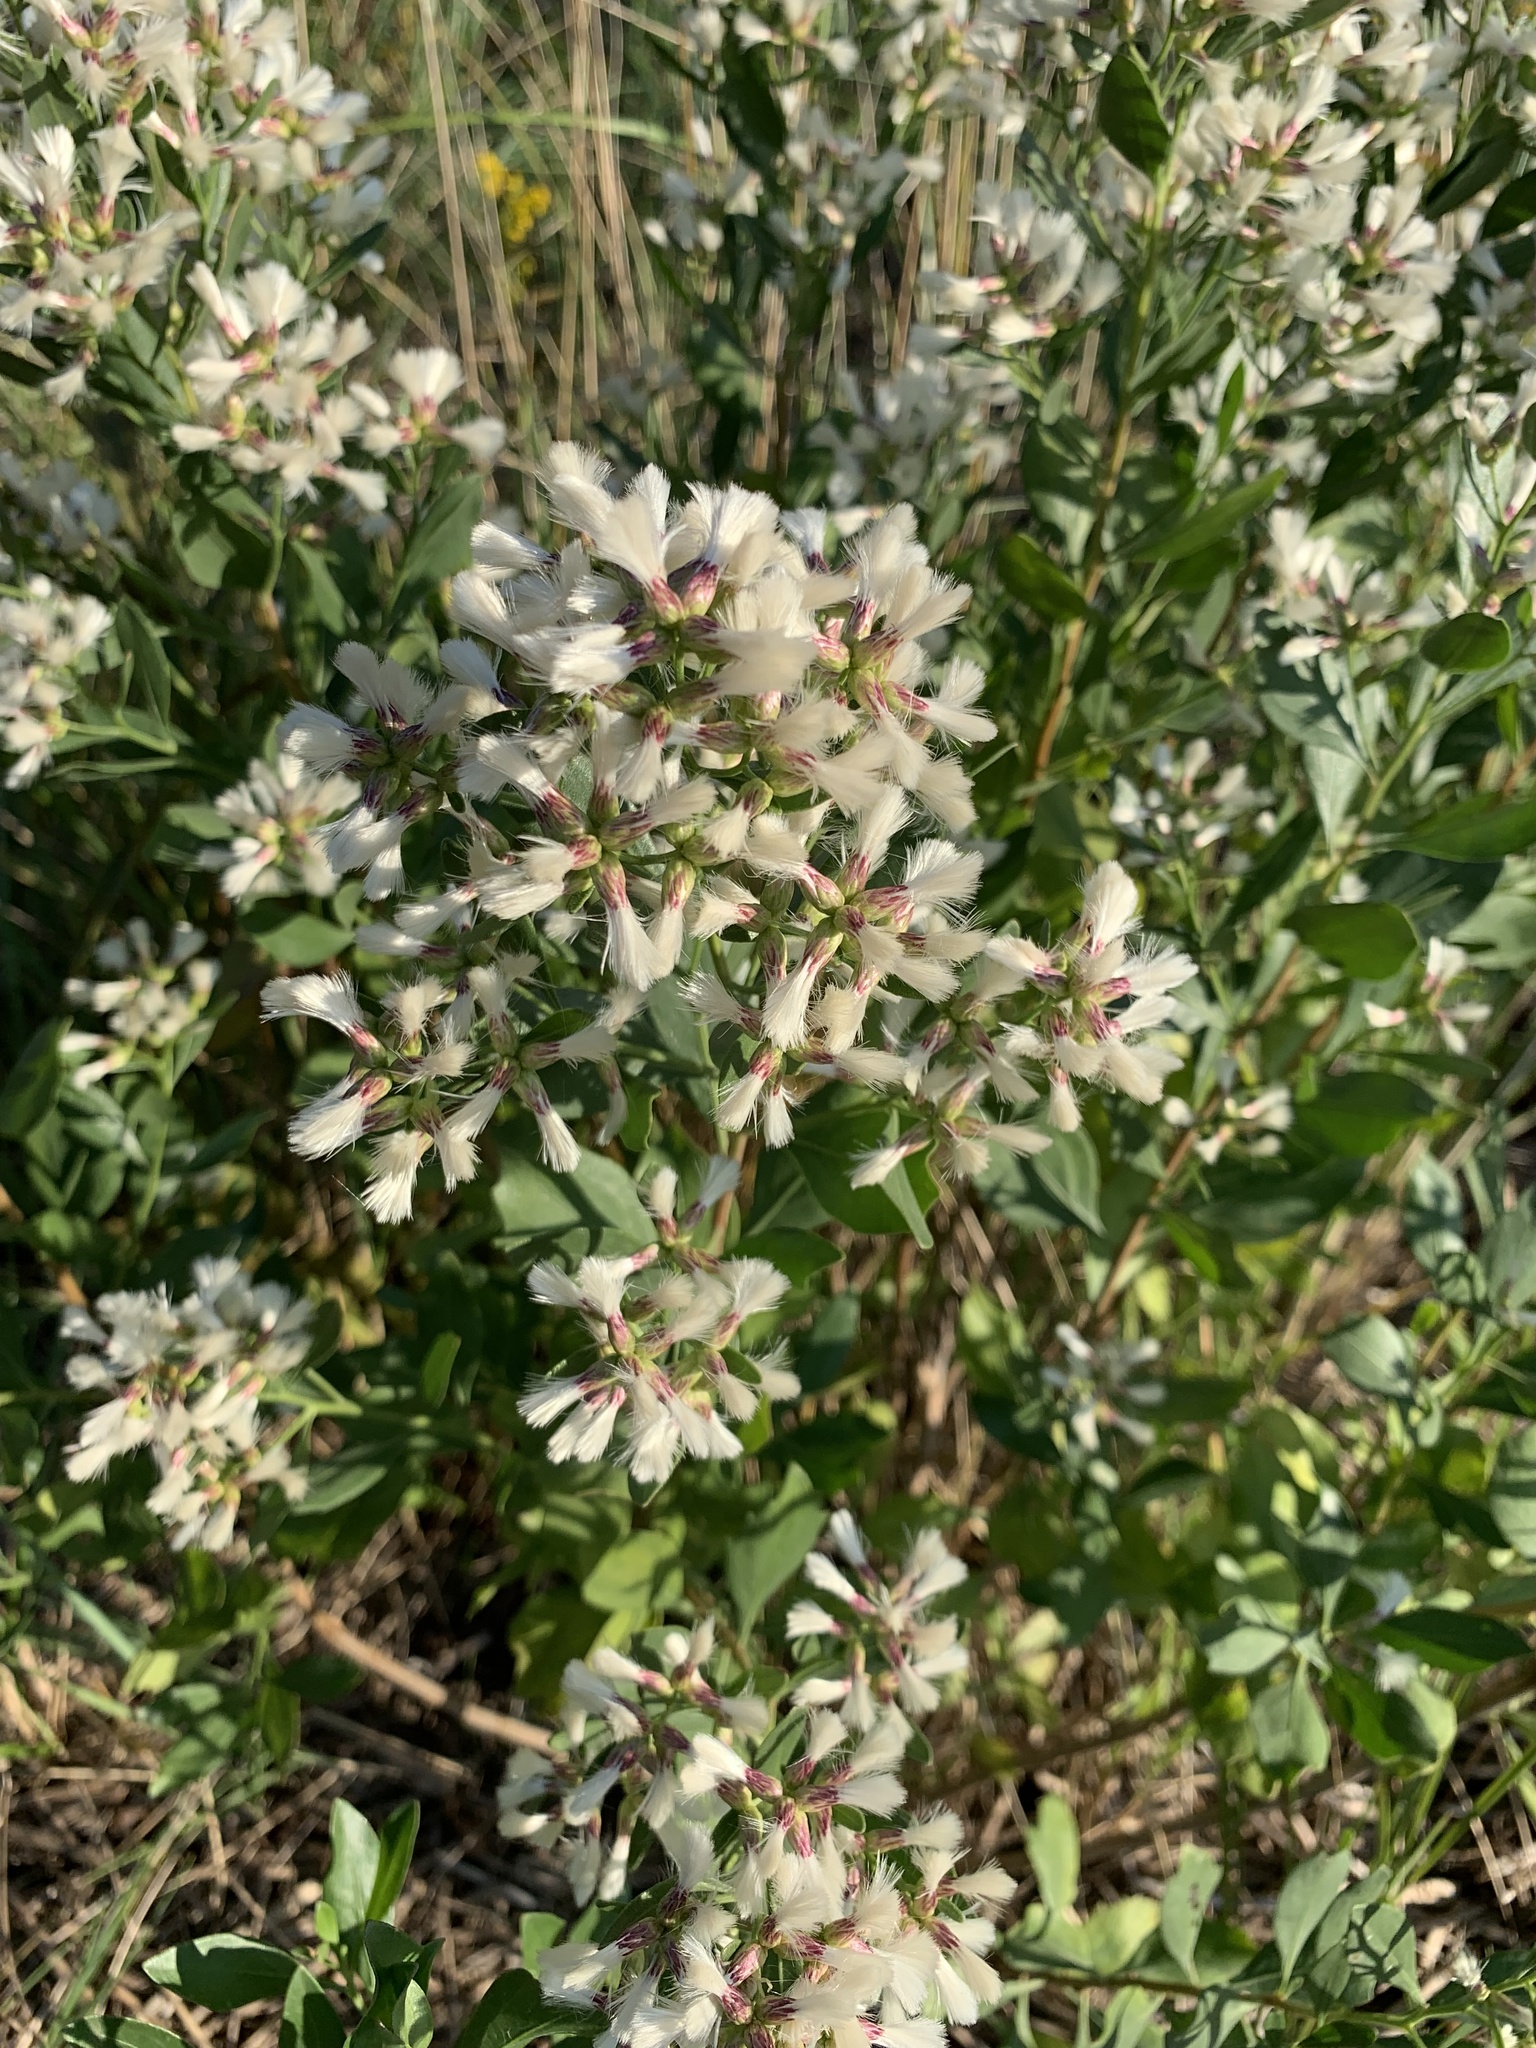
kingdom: Plantae
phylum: Tracheophyta
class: Magnoliopsida
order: Asterales
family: Asteraceae
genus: Baccharis
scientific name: Baccharis halimifolia
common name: Eastern baccharis
